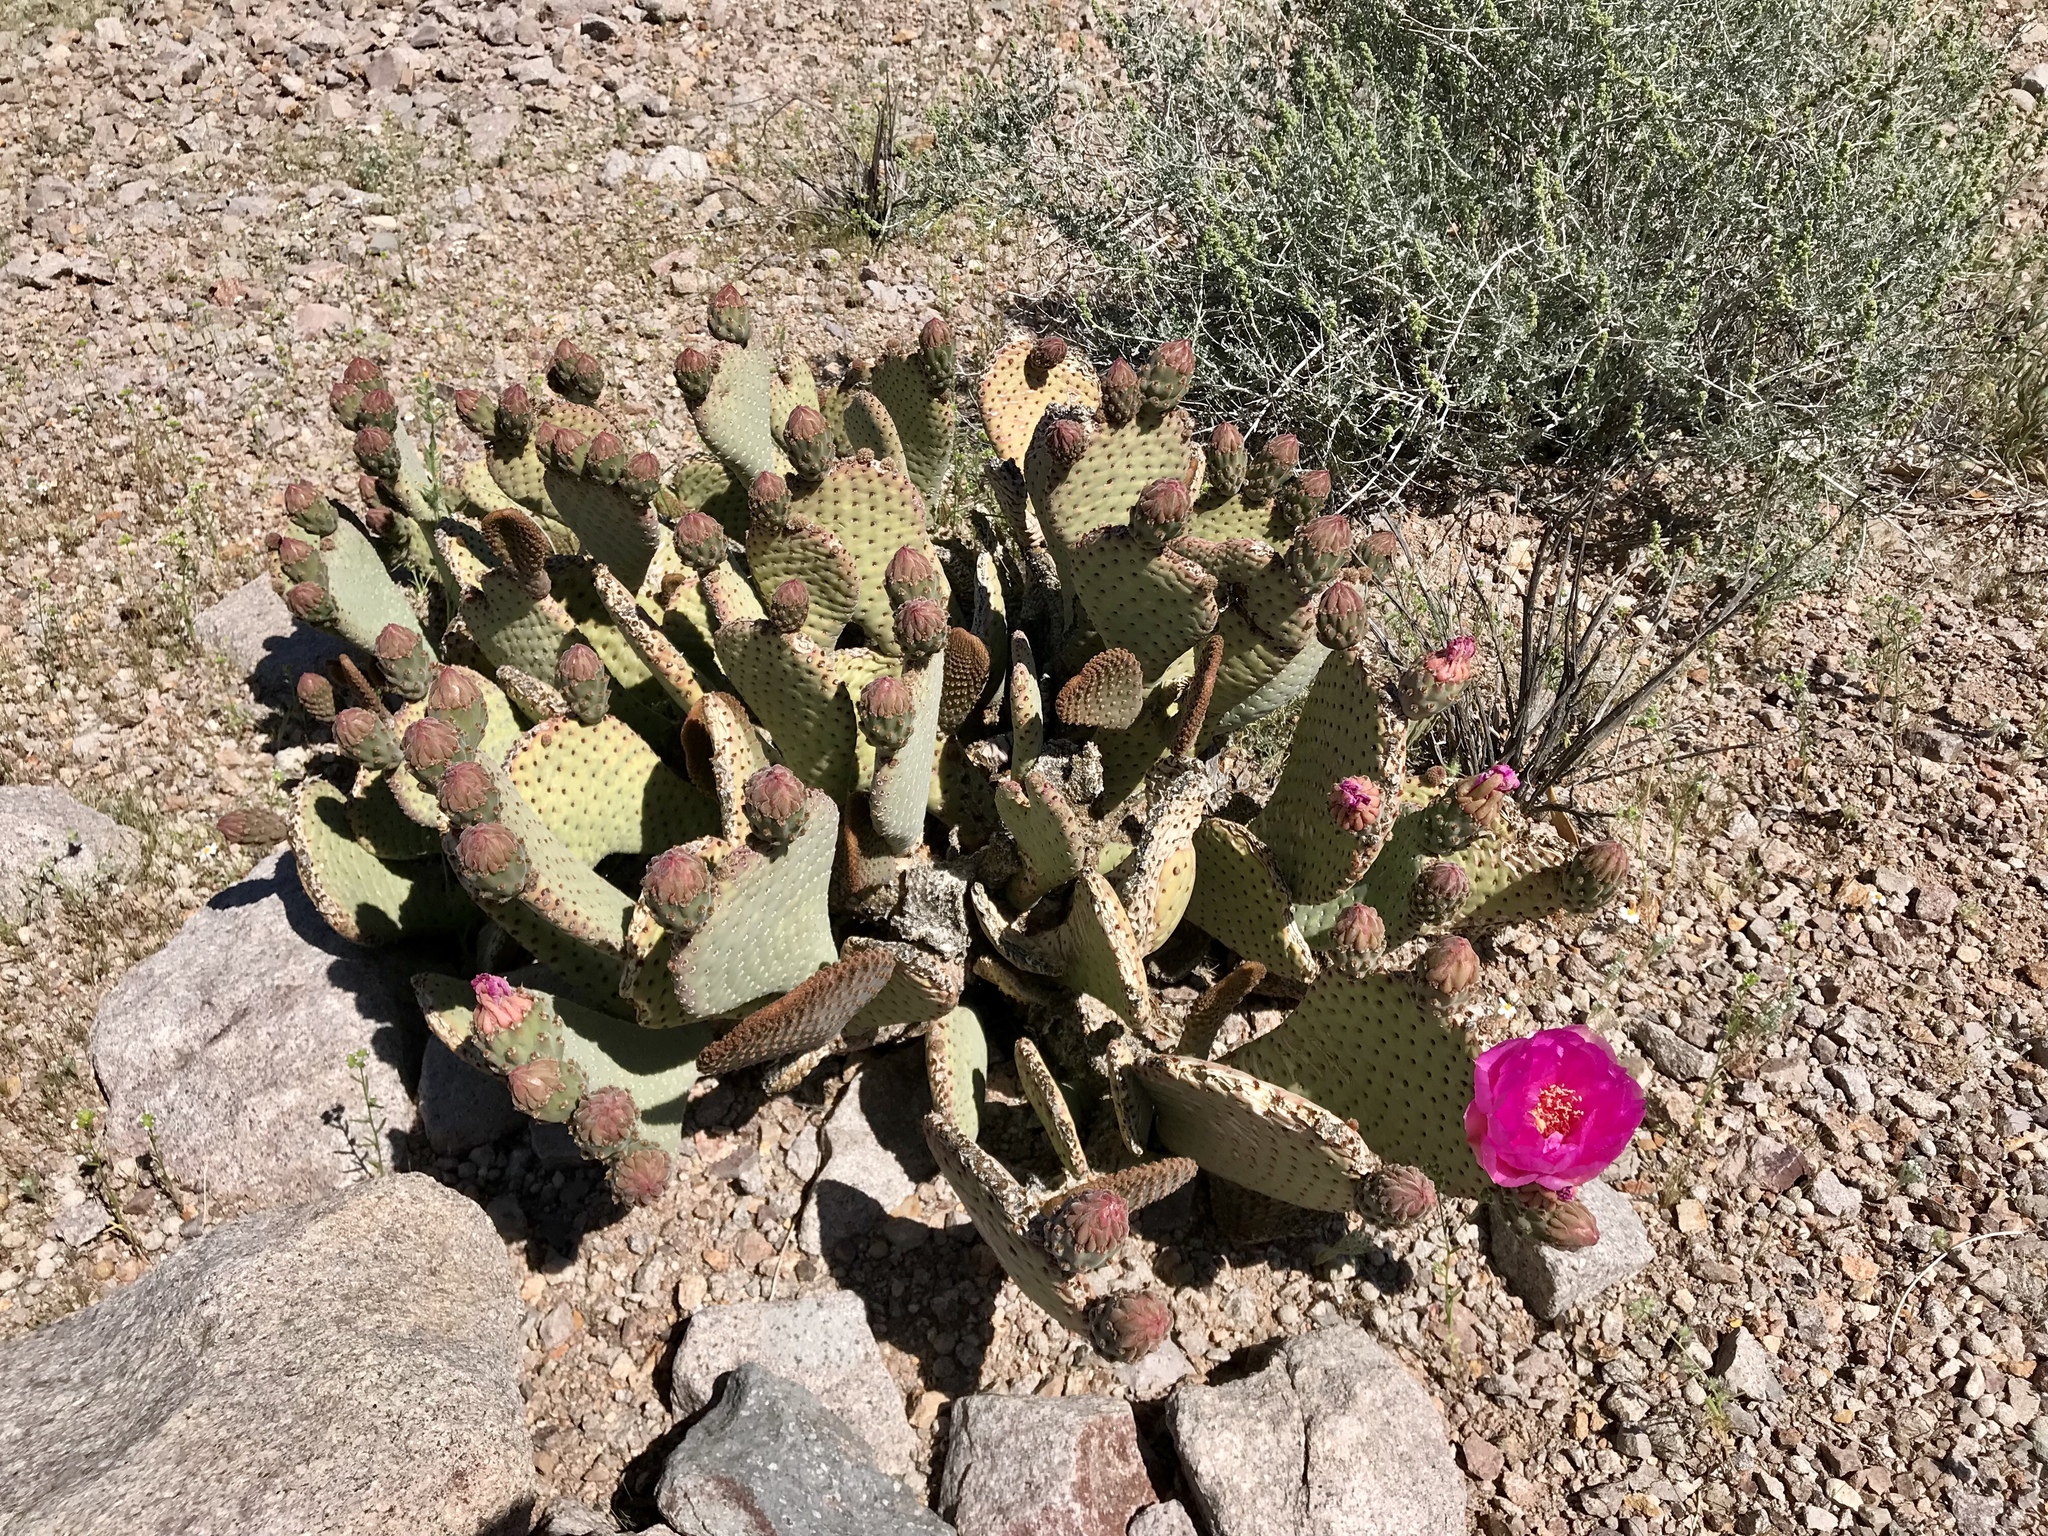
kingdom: Plantae
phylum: Tracheophyta
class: Magnoliopsida
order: Caryophyllales
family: Cactaceae
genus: Opuntia
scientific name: Opuntia basilaris
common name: Beavertail prickly-pear
